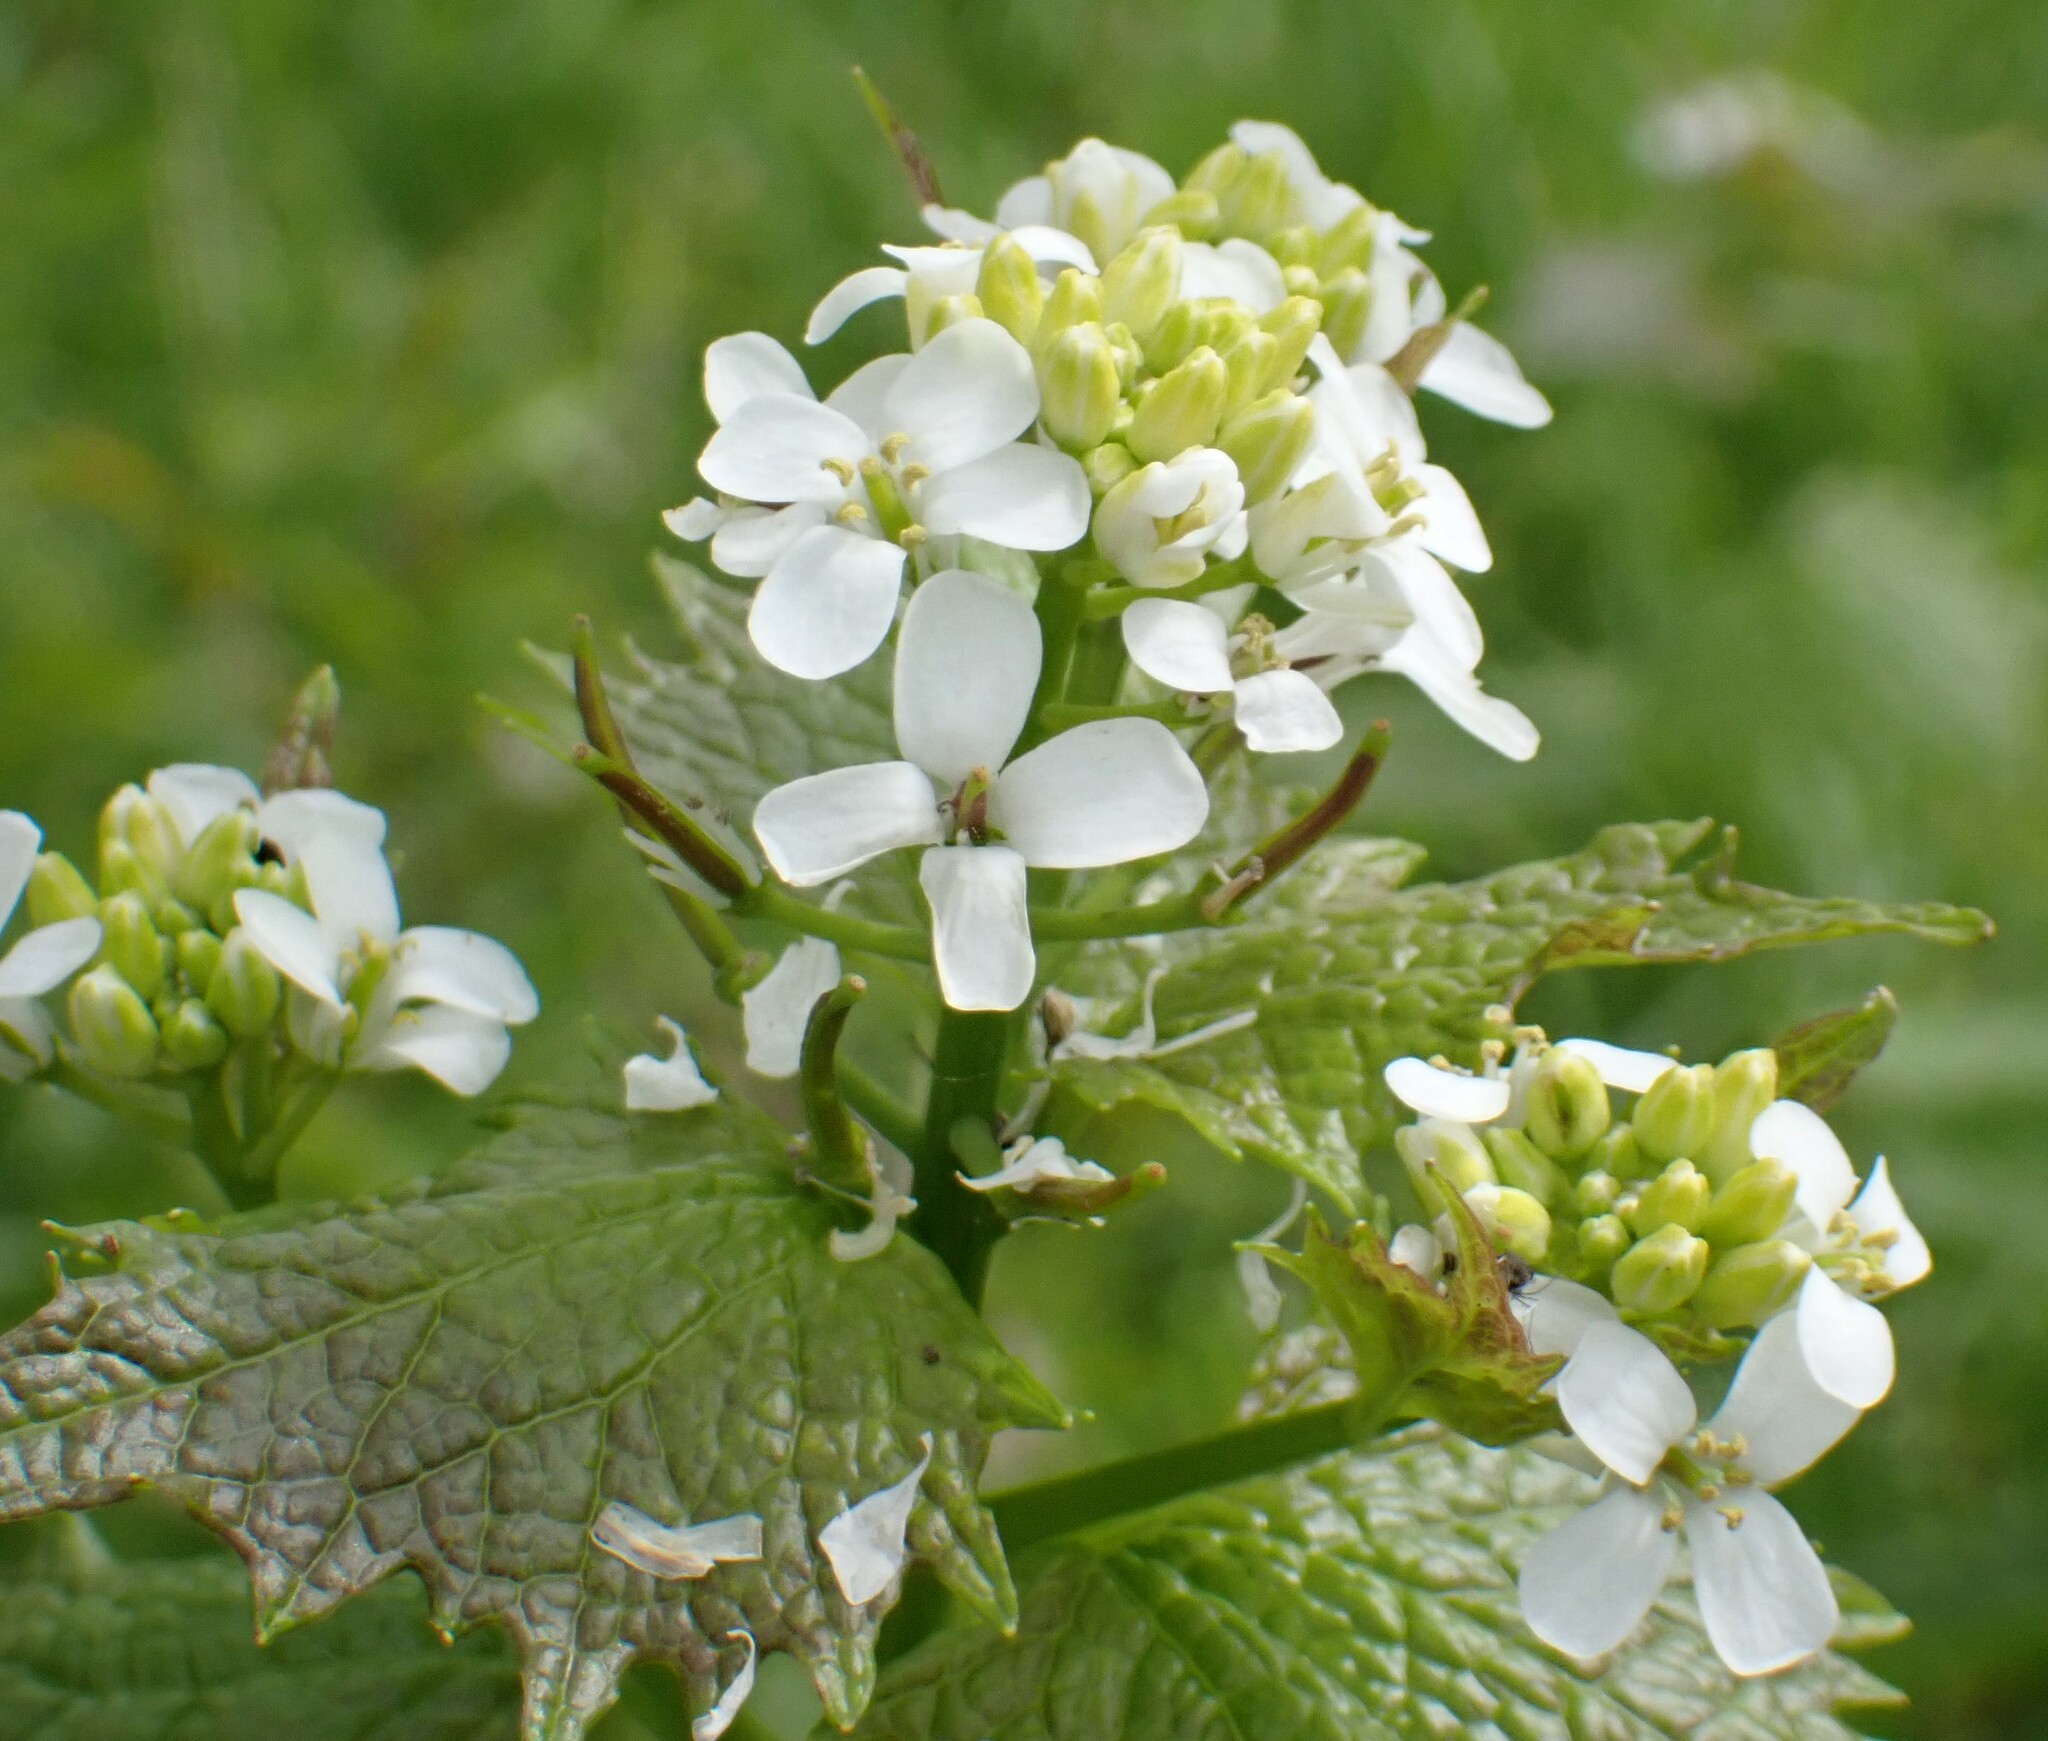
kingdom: Plantae
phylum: Tracheophyta
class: Magnoliopsida
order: Brassicales
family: Brassicaceae
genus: Alliaria
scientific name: Alliaria petiolata
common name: Garlic mustard
